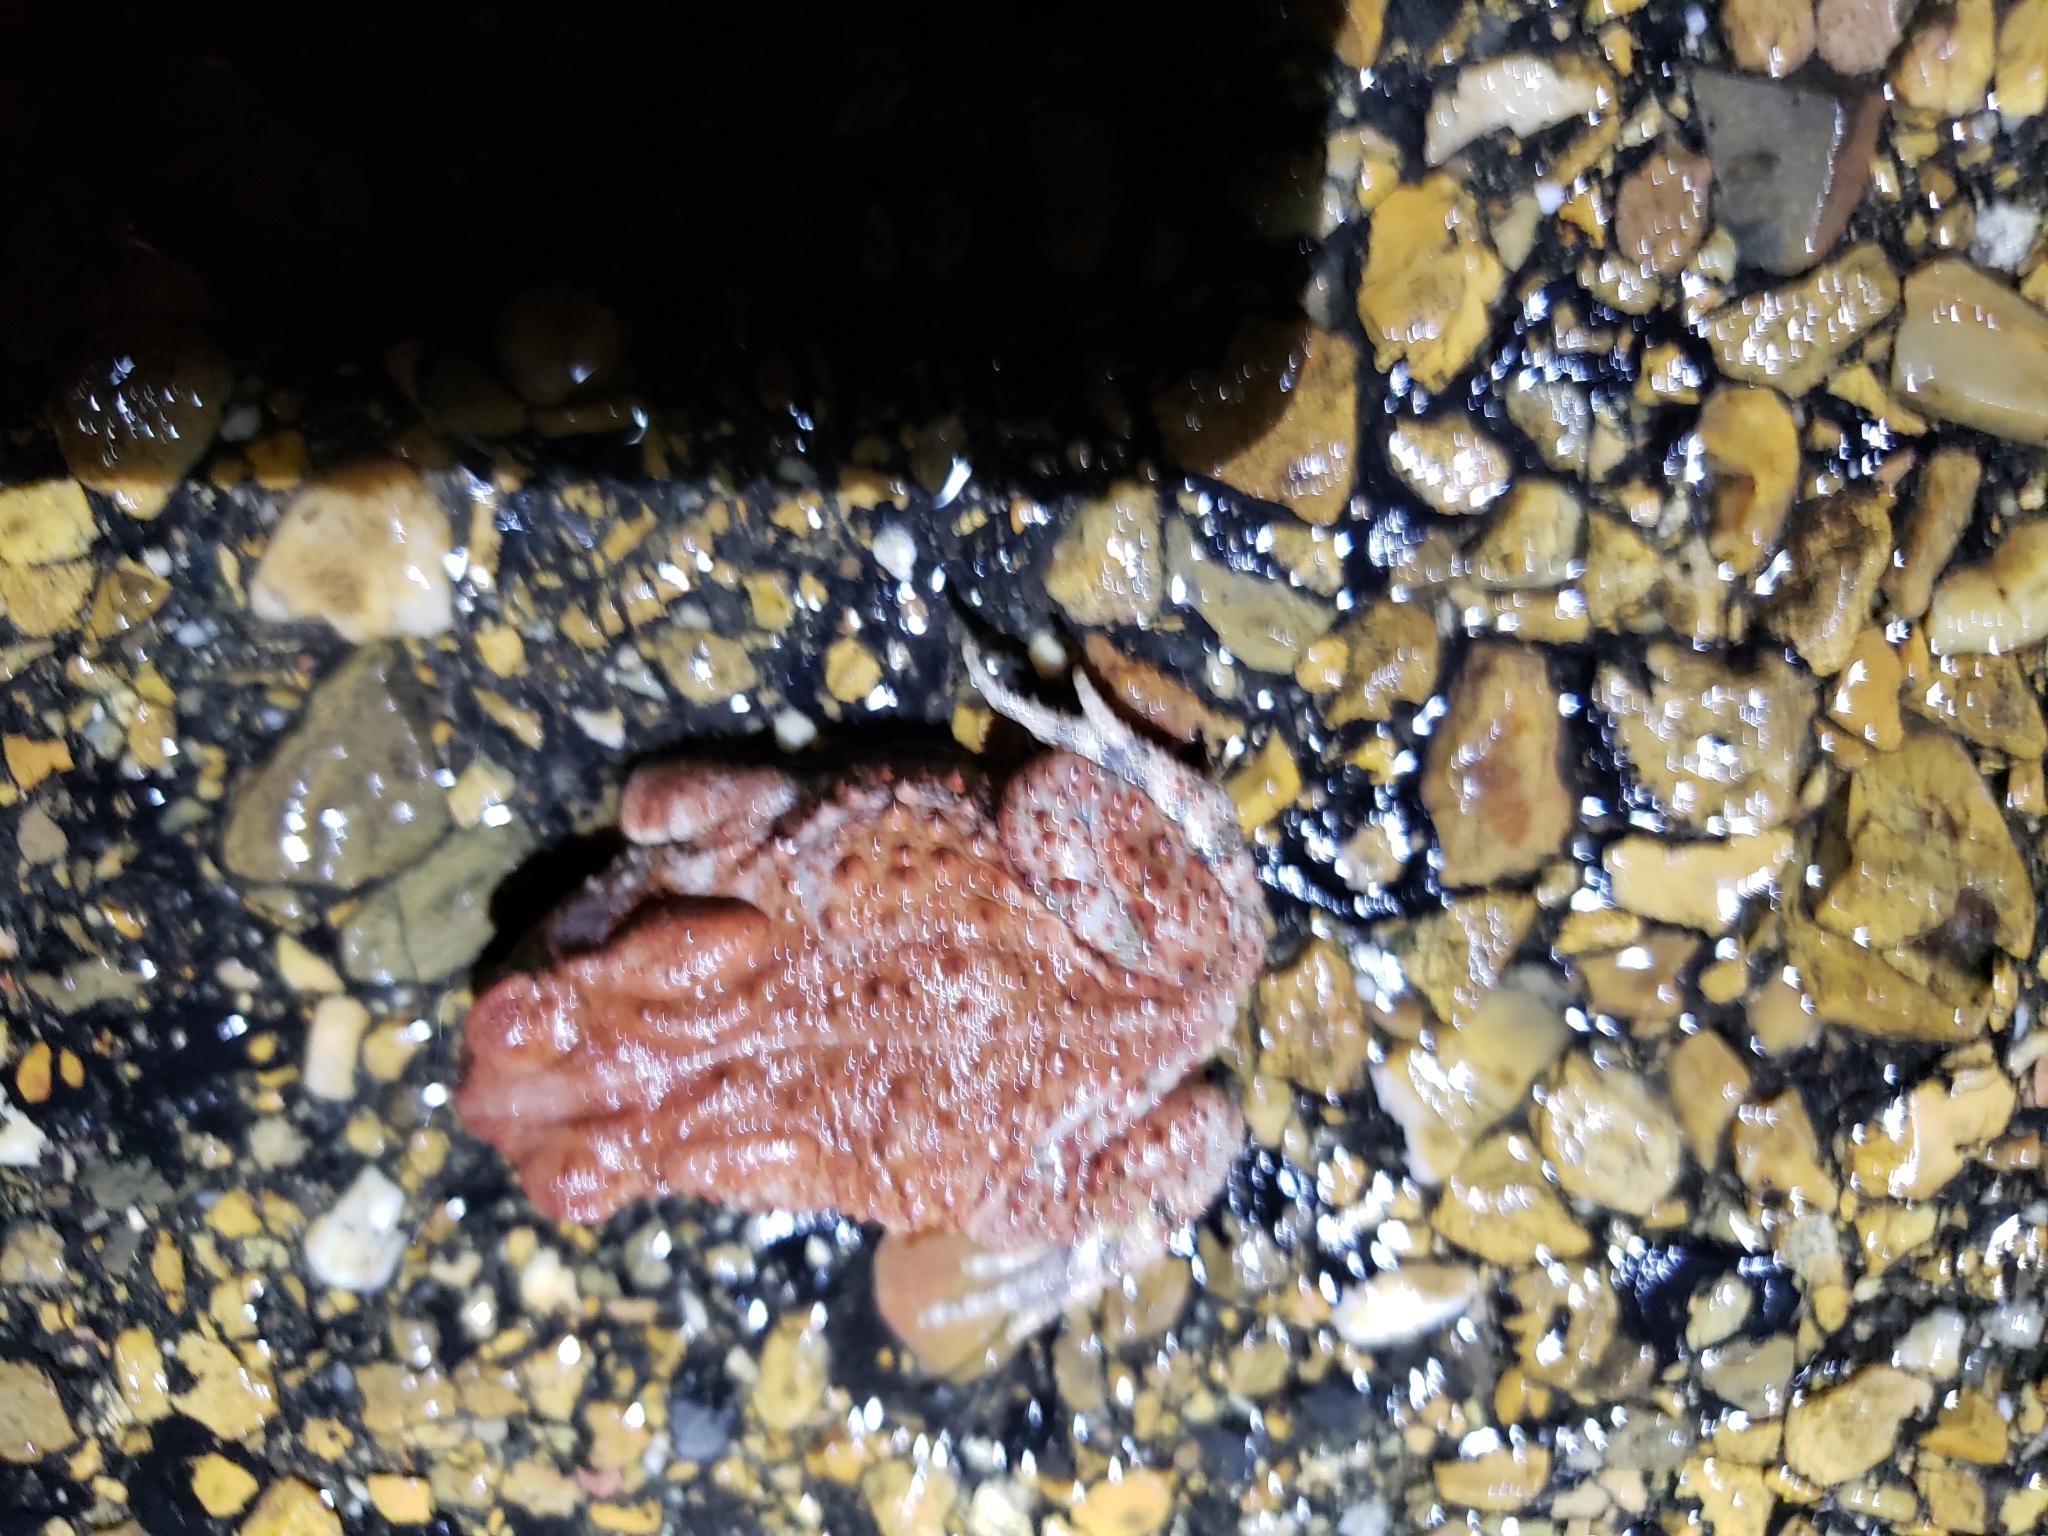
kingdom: Animalia
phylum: Chordata
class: Amphibia
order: Anura
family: Bufonidae
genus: Anaxyrus
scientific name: Anaxyrus americanus
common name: American toad
